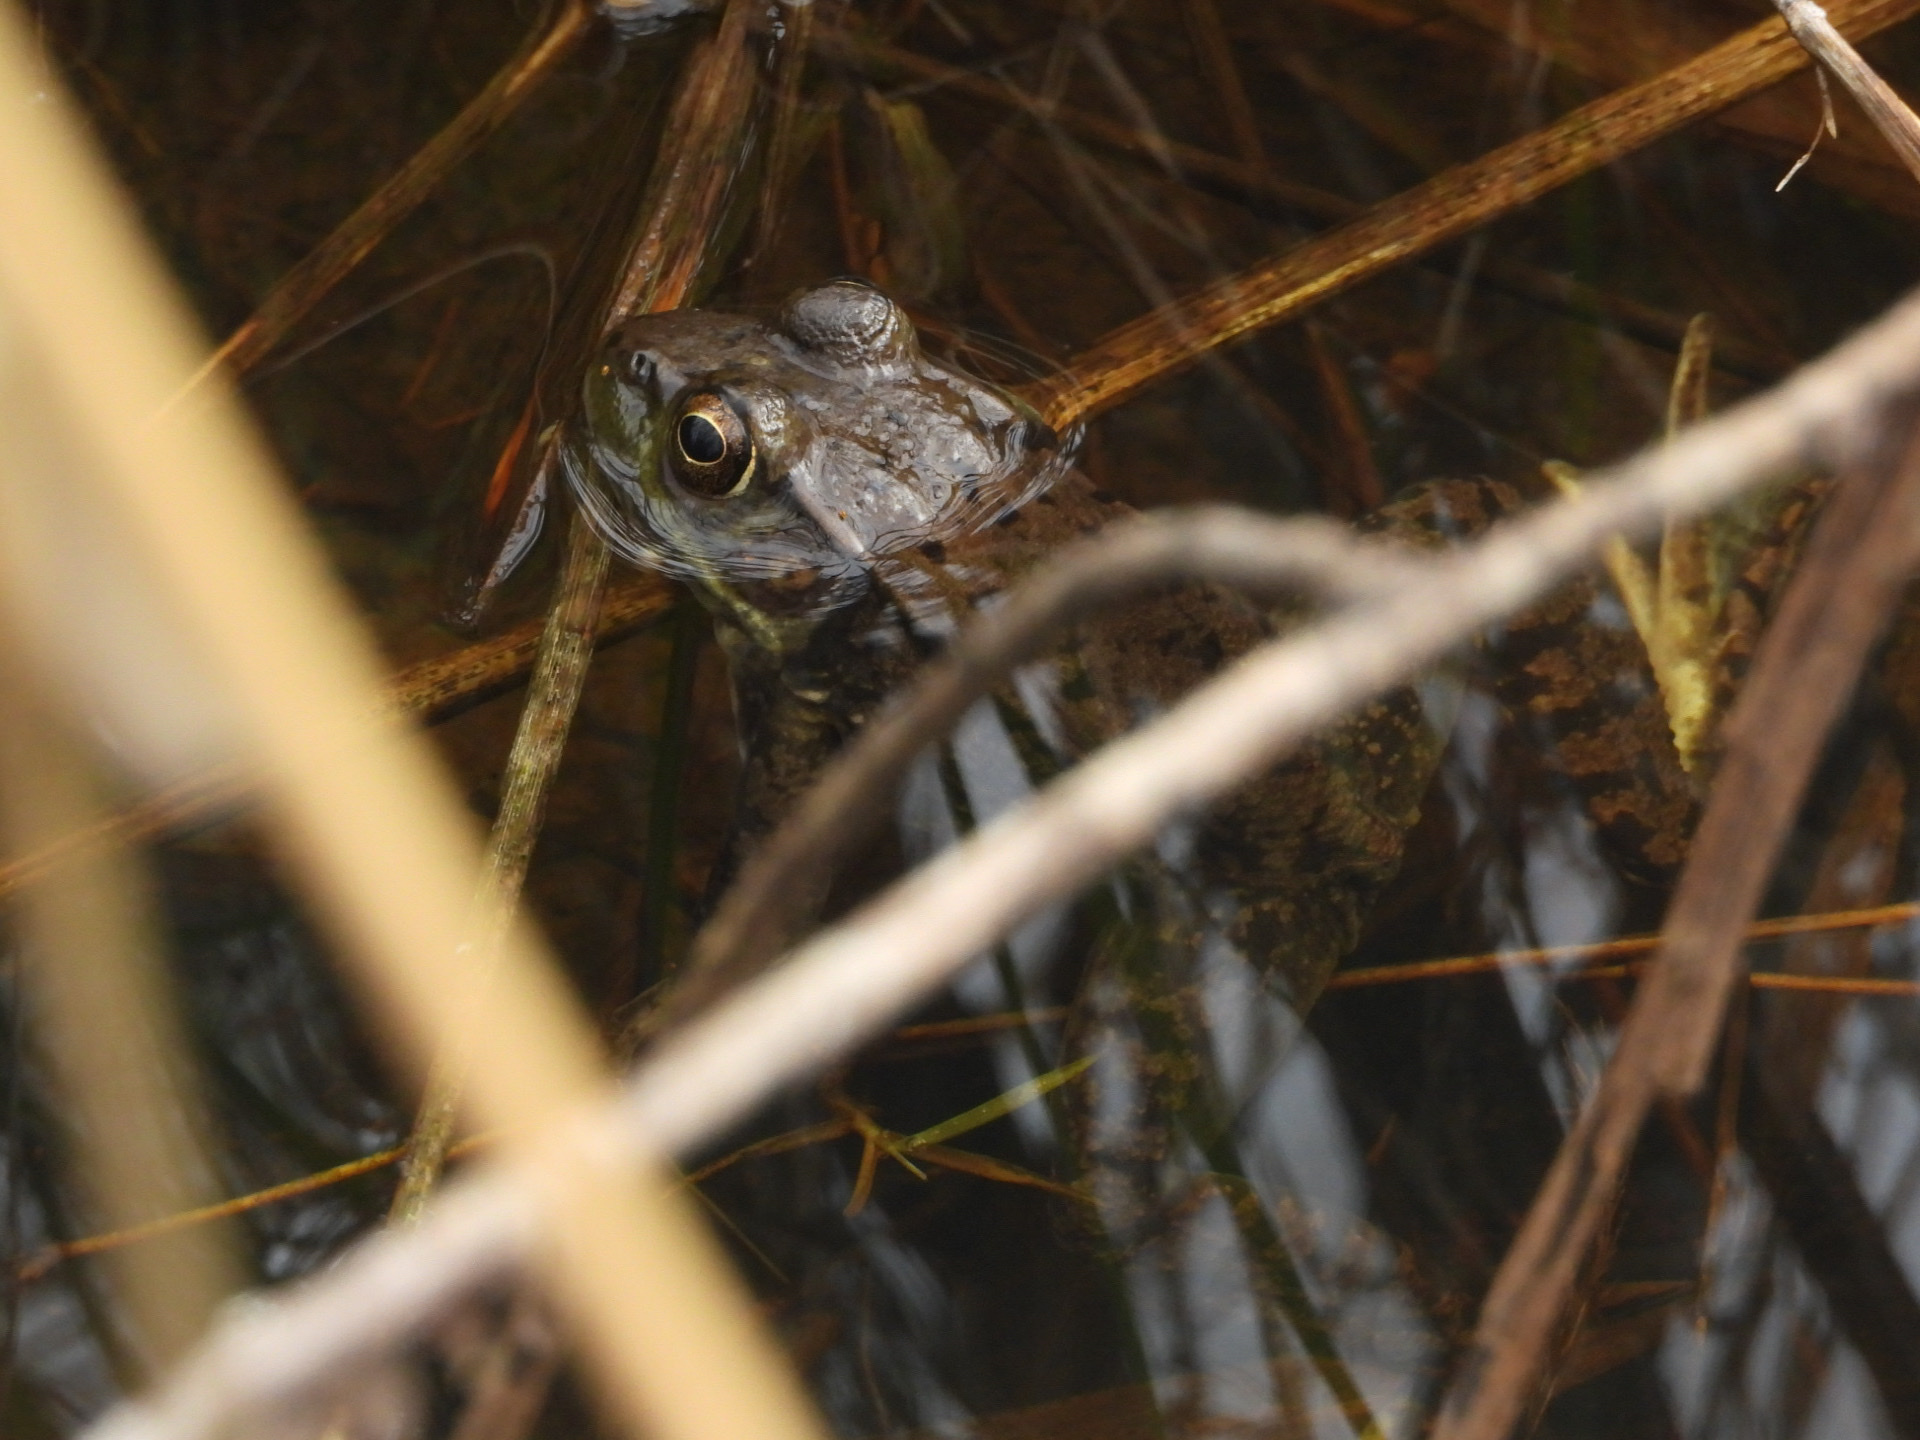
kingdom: Animalia
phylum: Chordata
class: Amphibia
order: Anura
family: Ranidae
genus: Lithobates
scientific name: Lithobates clamitans
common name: Green frog
